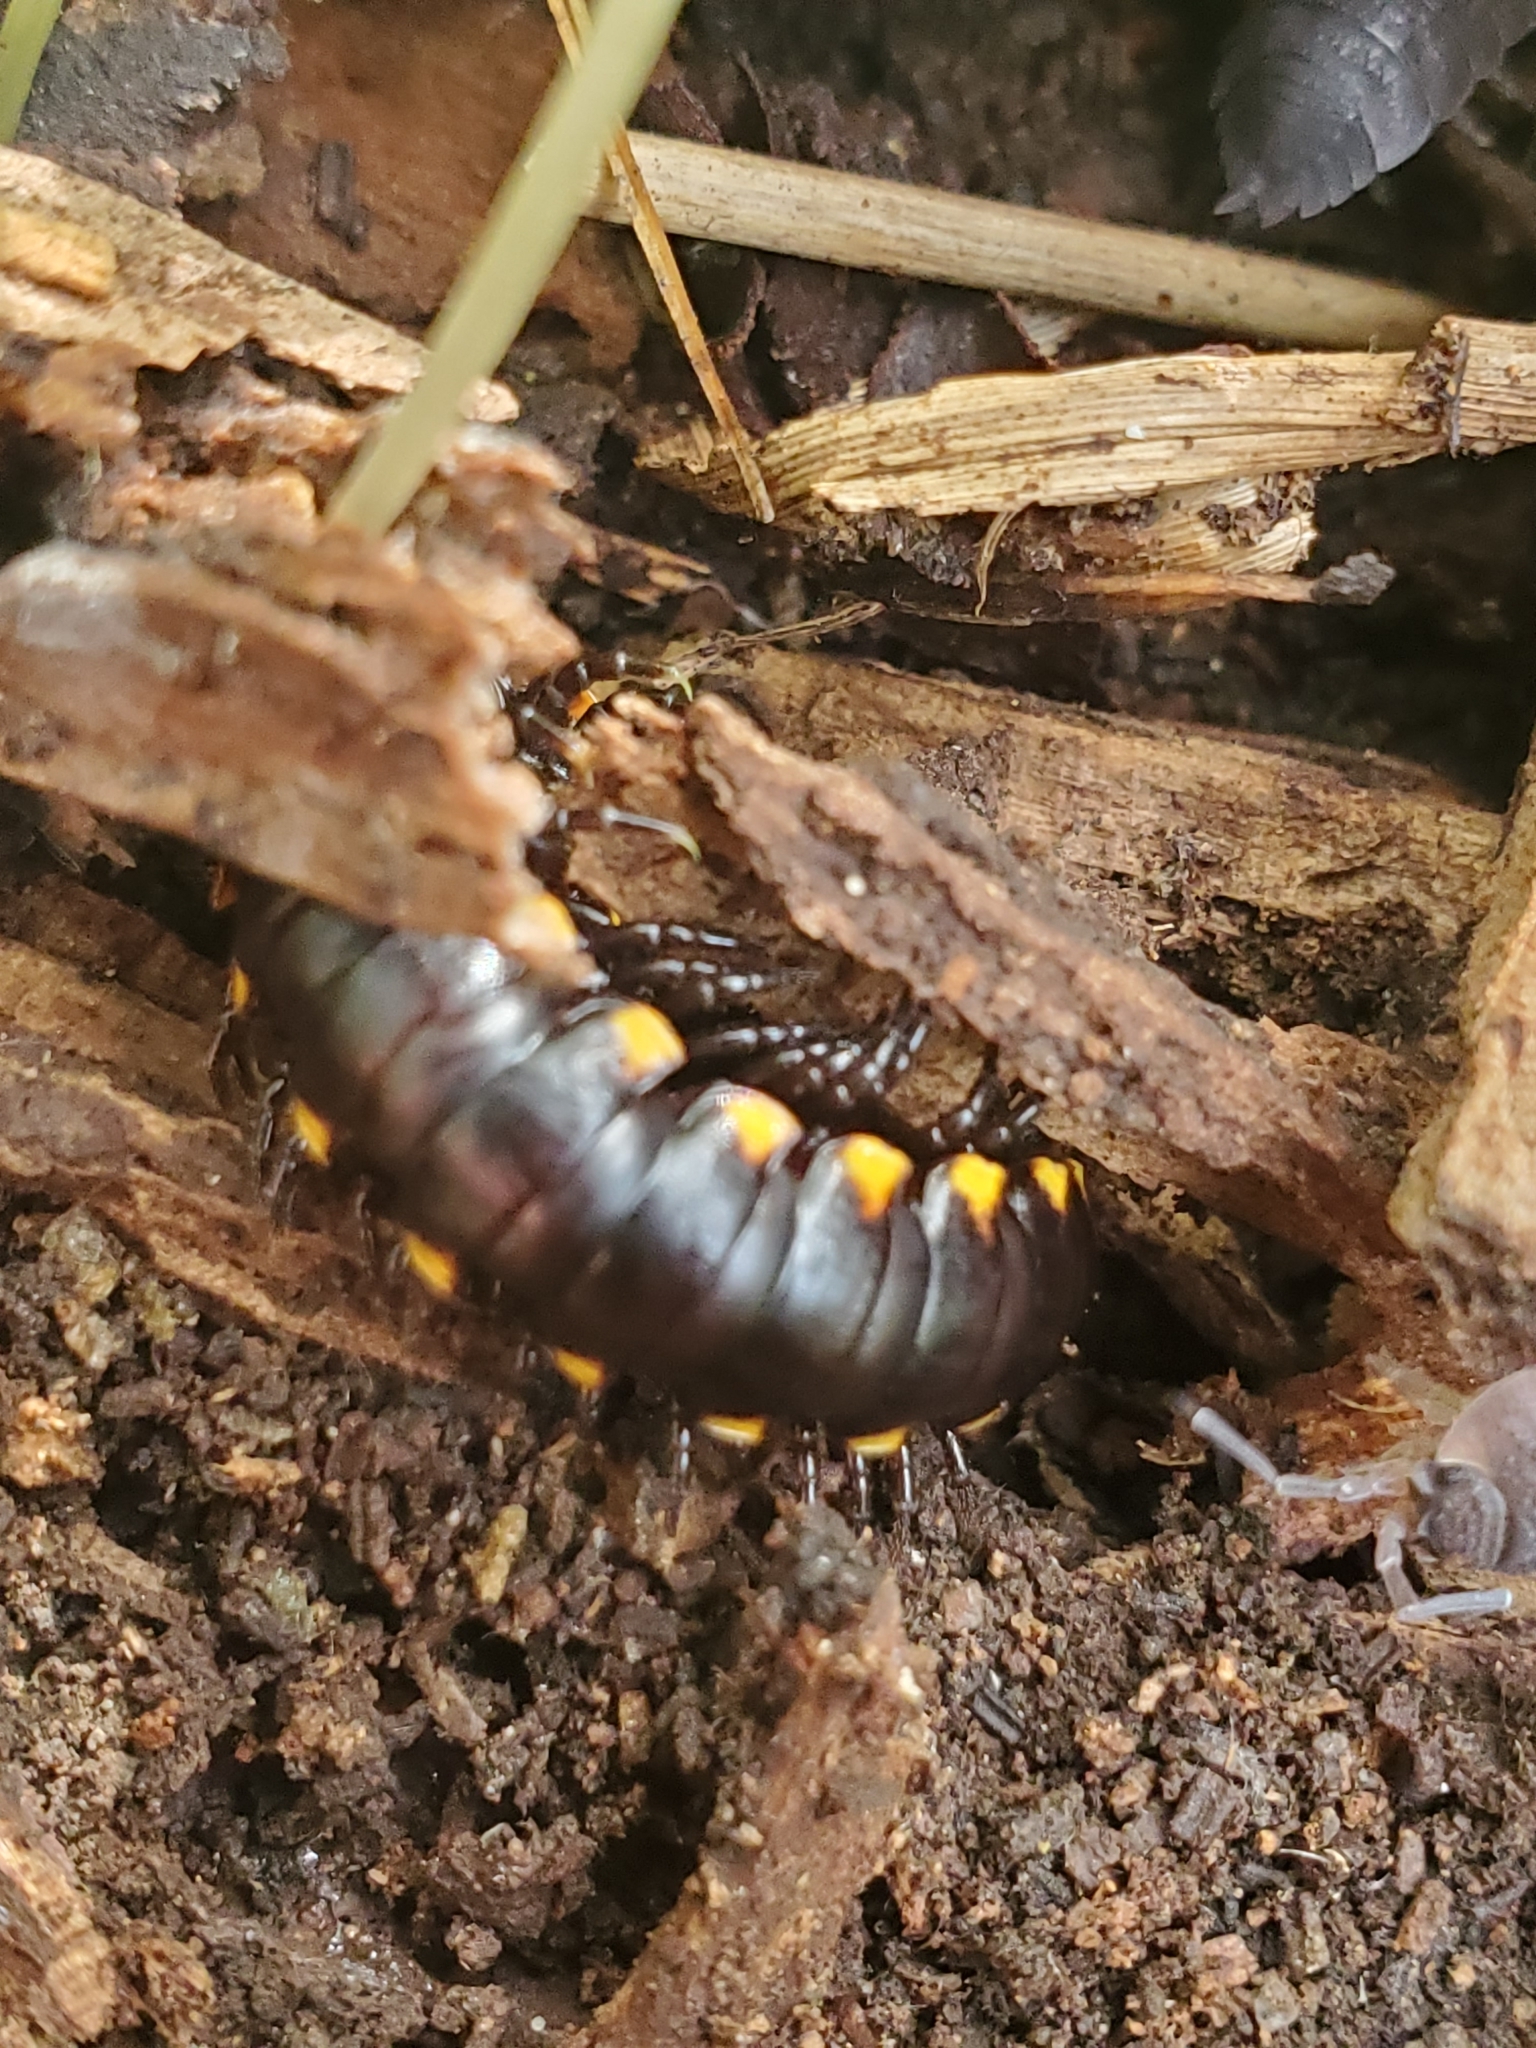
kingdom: Animalia
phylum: Arthropoda
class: Diplopoda
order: Polydesmida
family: Xystodesmidae
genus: Harpaphe
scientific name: Harpaphe haydeniana
